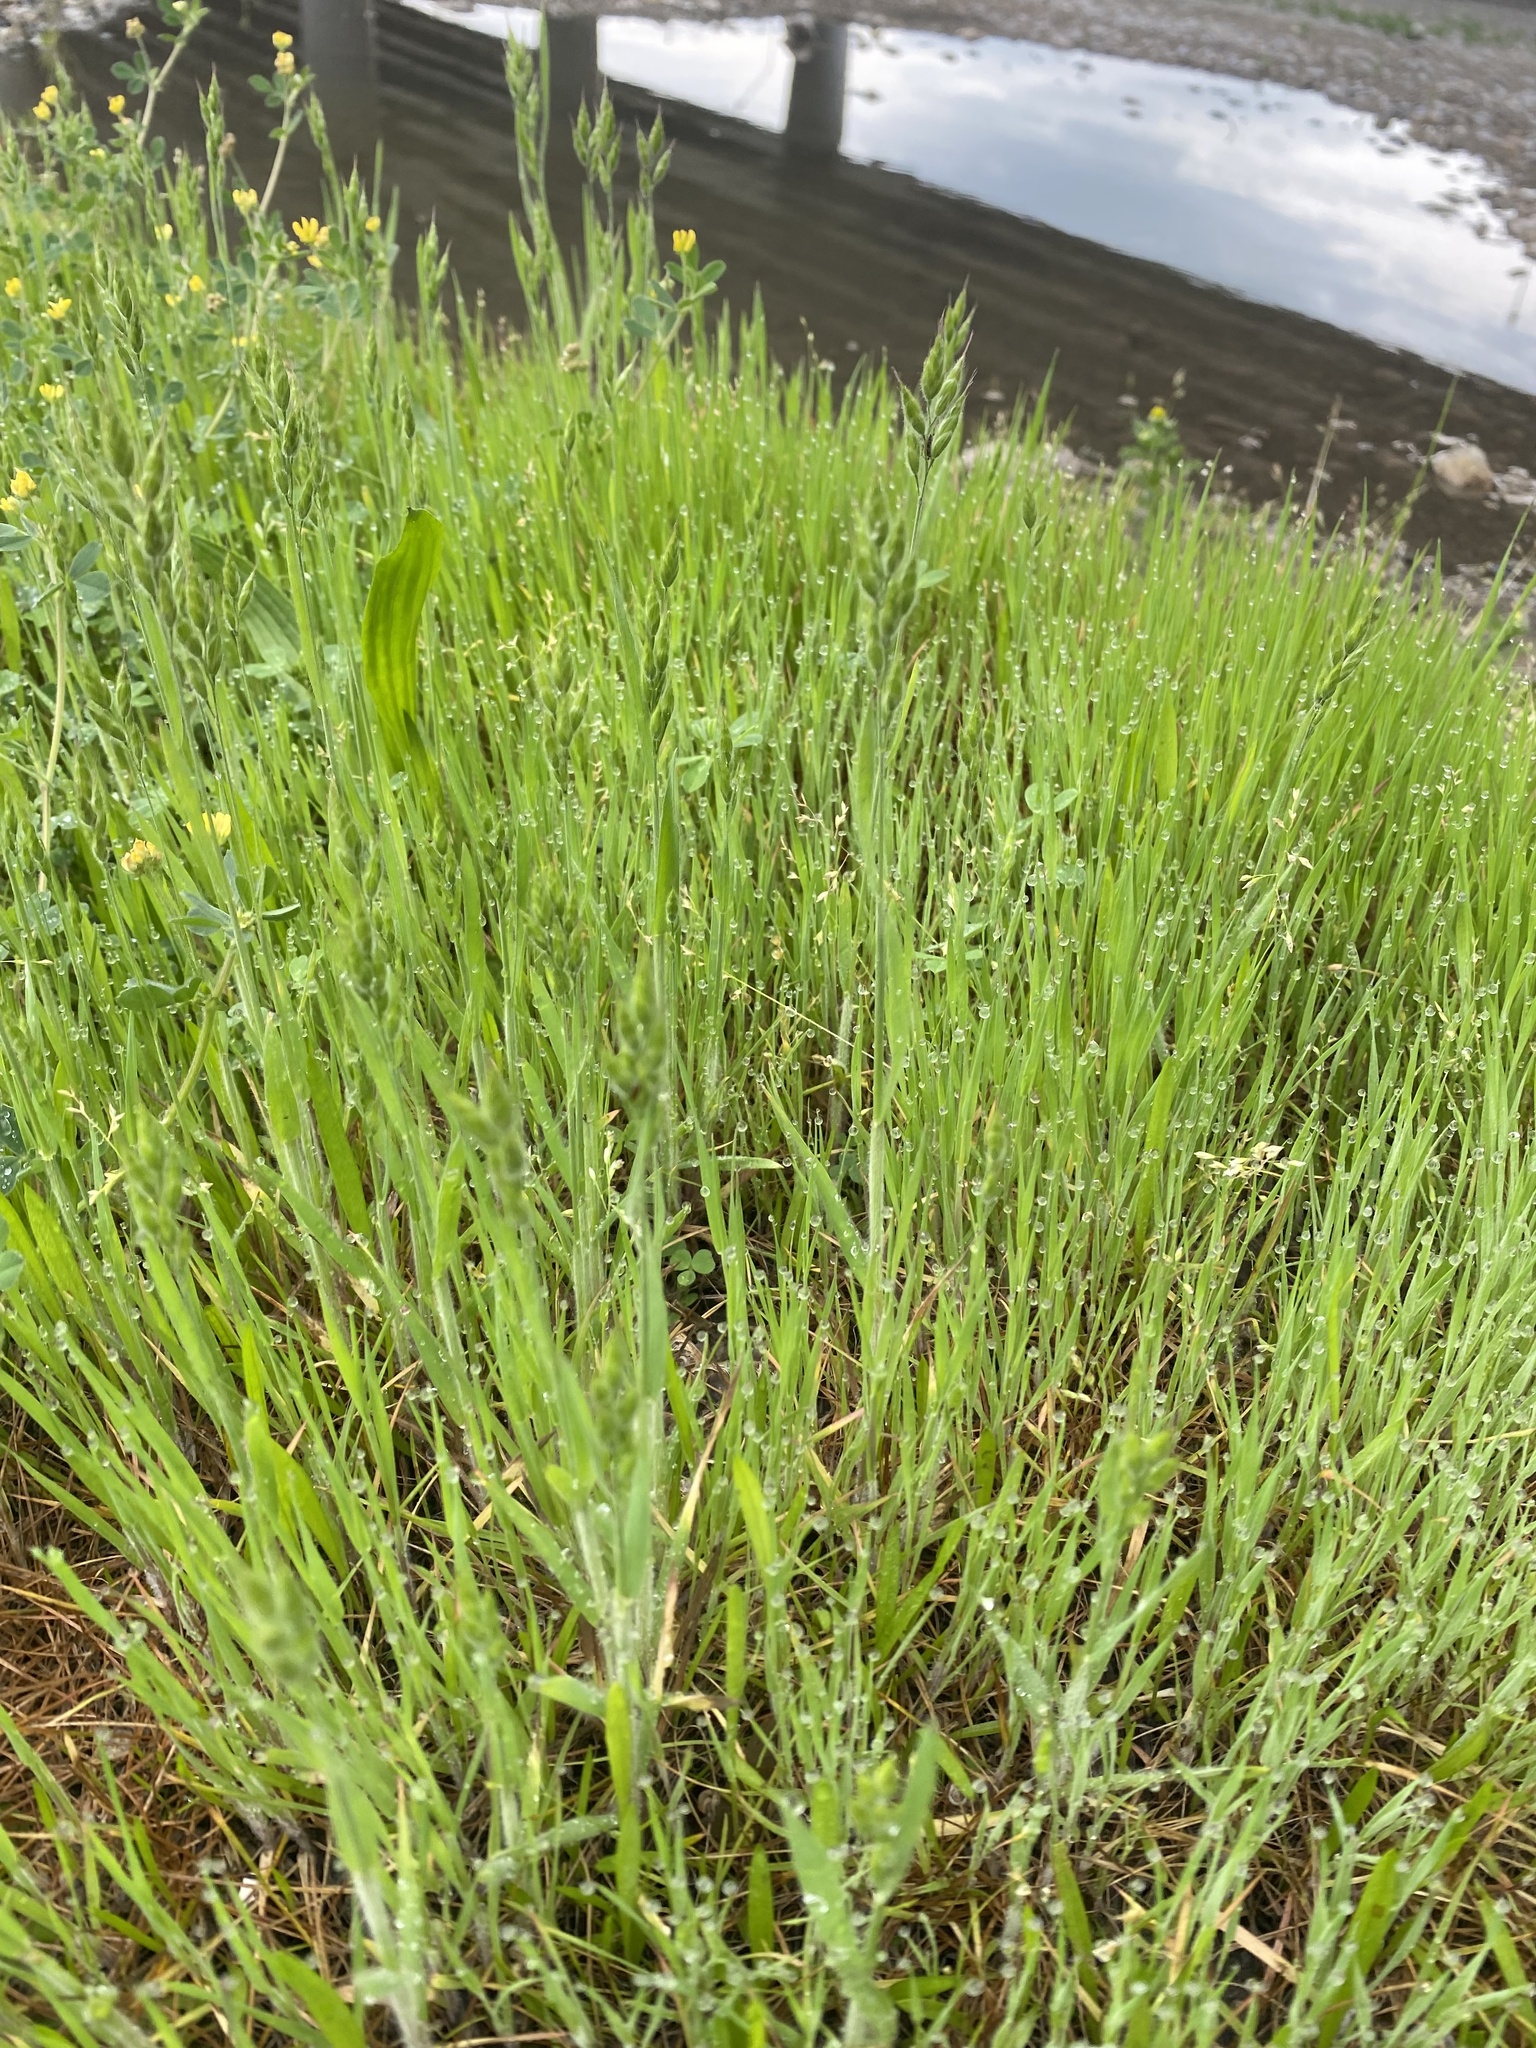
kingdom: Plantae
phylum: Tracheophyta
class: Liliopsida
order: Poales
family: Poaceae
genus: Bromus
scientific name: Bromus hordeaceus
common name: Soft brome
